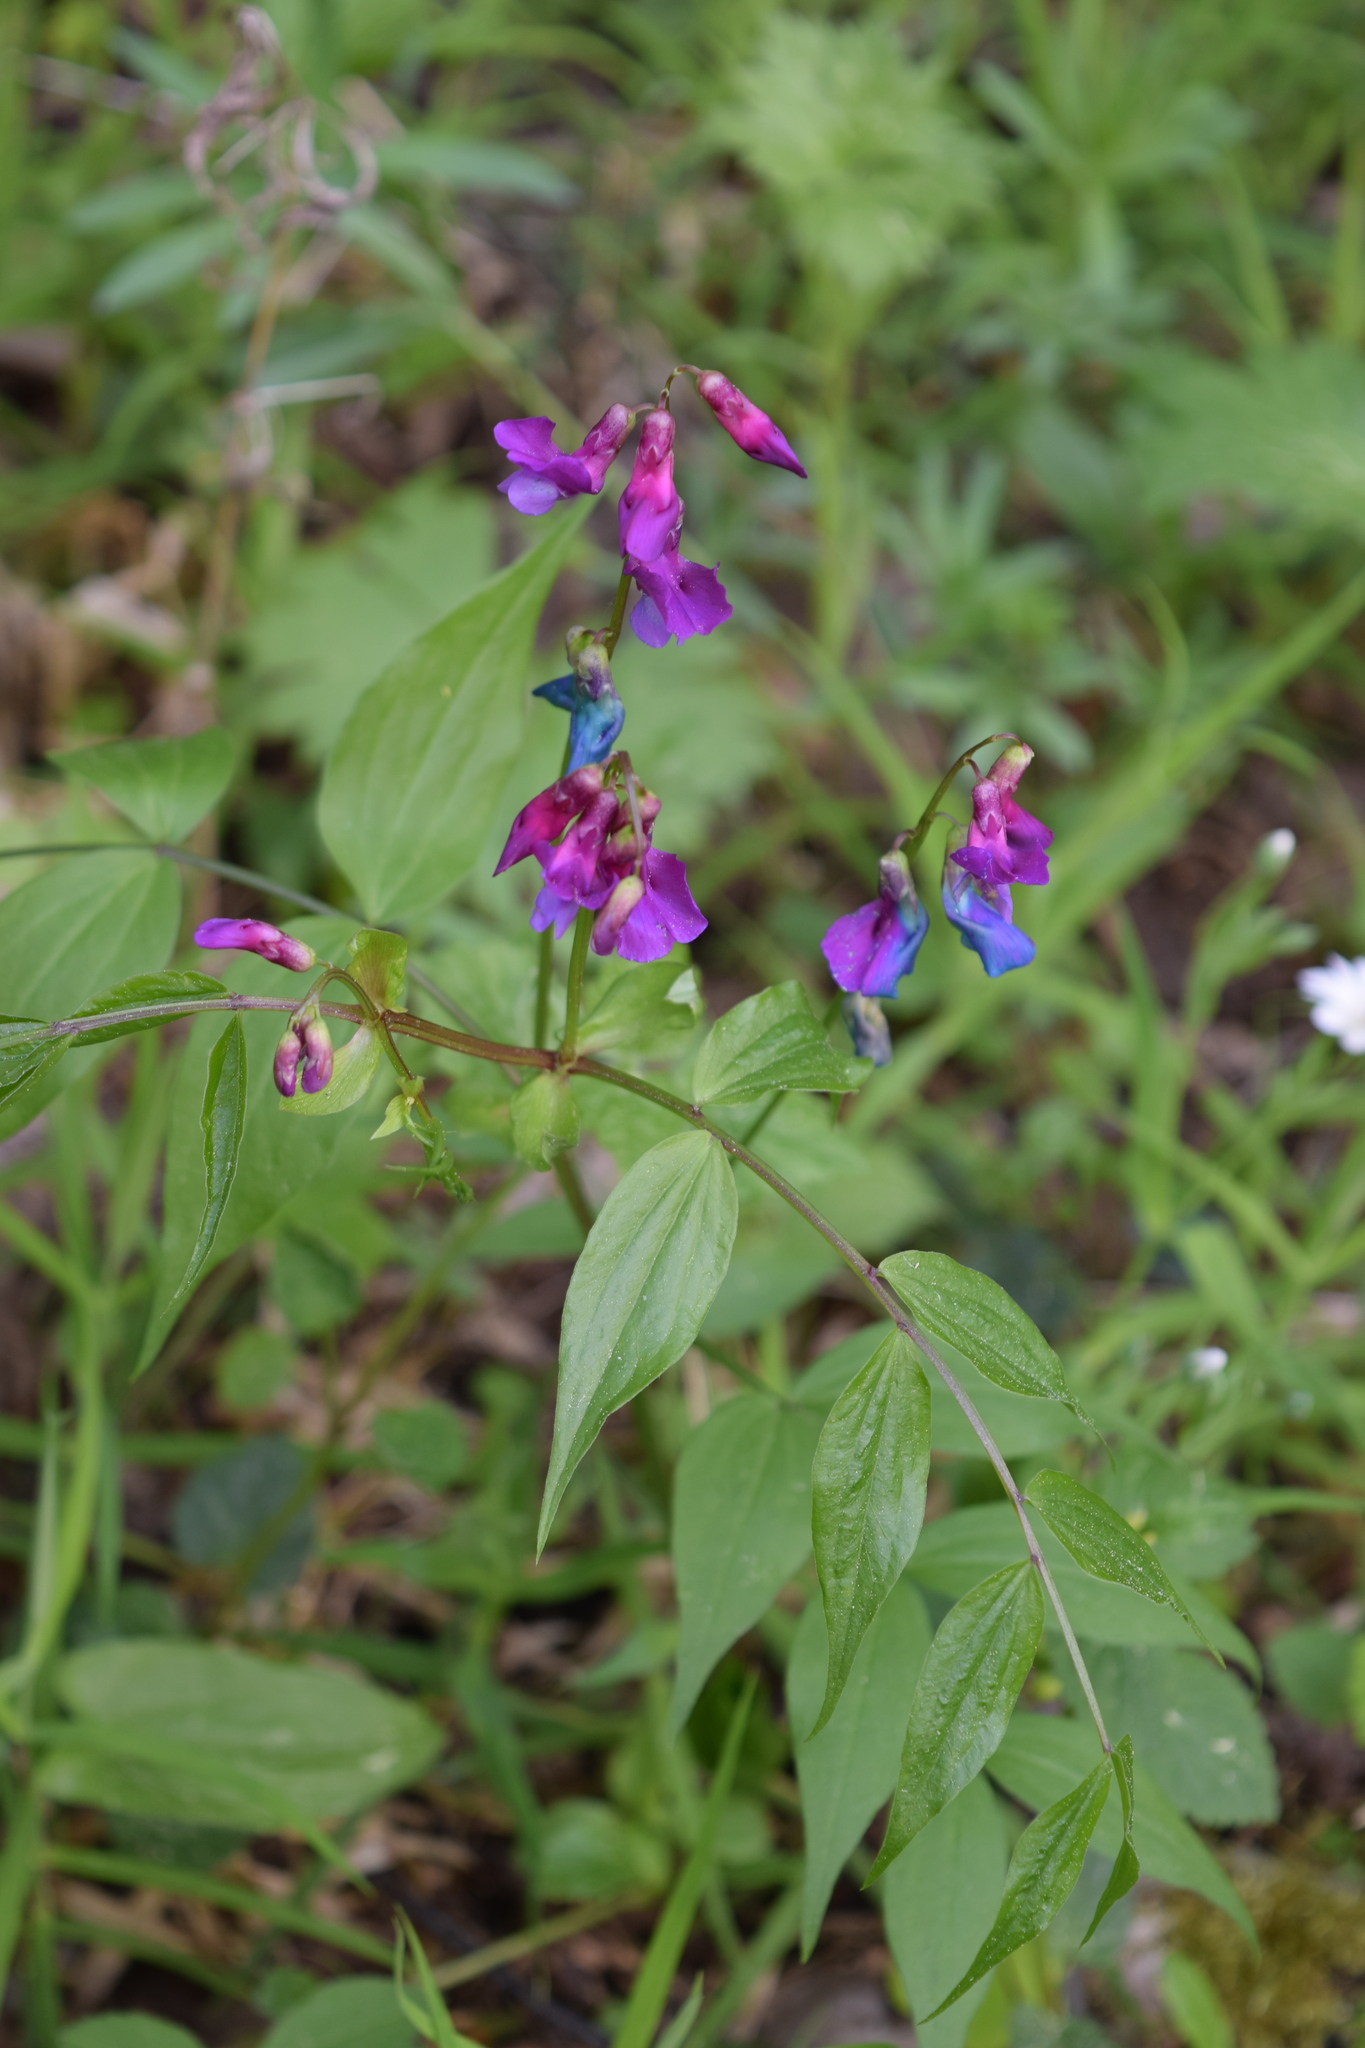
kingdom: Plantae
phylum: Tracheophyta
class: Magnoliopsida
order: Fabales
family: Fabaceae
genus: Lathyrus
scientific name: Lathyrus vernus
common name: Spring pea
